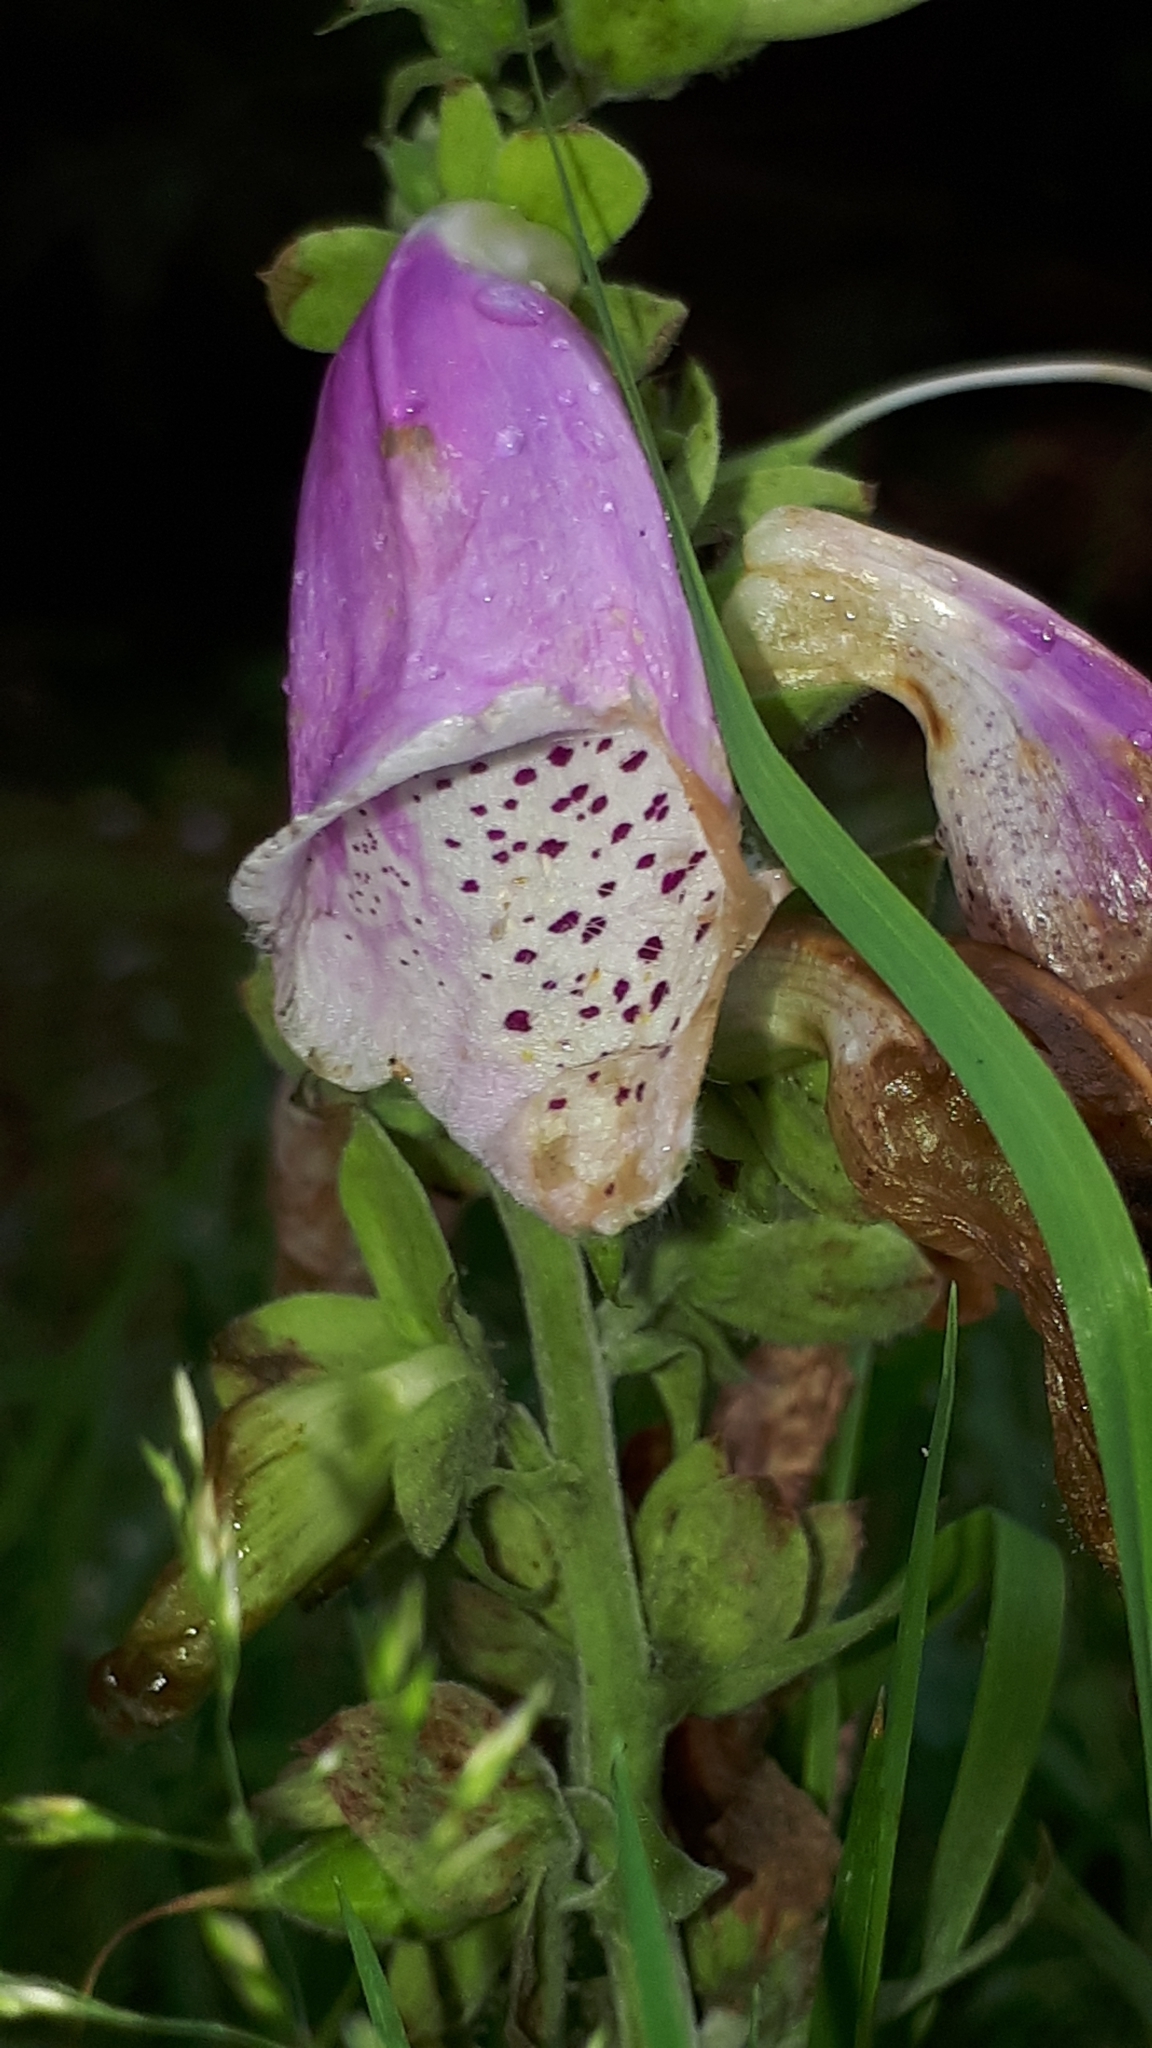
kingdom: Plantae
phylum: Tracheophyta
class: Magnoliopsida
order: Lamiales
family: Plantaginaceae
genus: Digitalis
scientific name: Digitalis purpurea
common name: Foxglove
